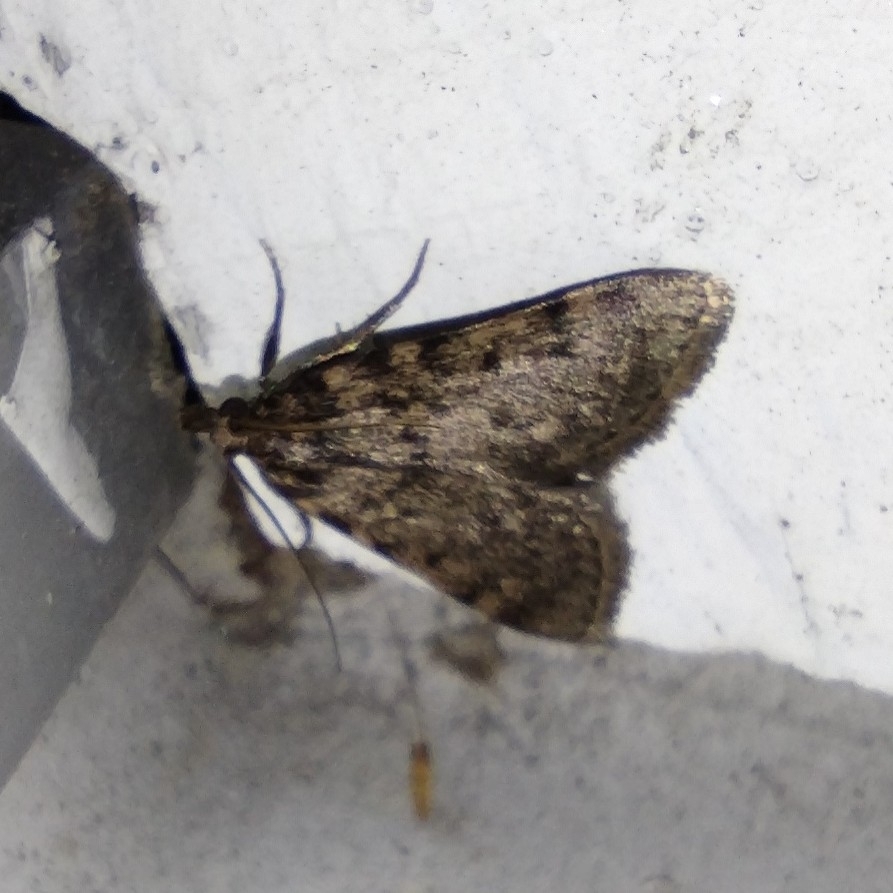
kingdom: Animalia
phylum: Arthropoda
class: Insecta
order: Lepidoptera
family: Pyralidae
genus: Aglossa
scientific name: Aglossa pinguinalis
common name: Large tabby
